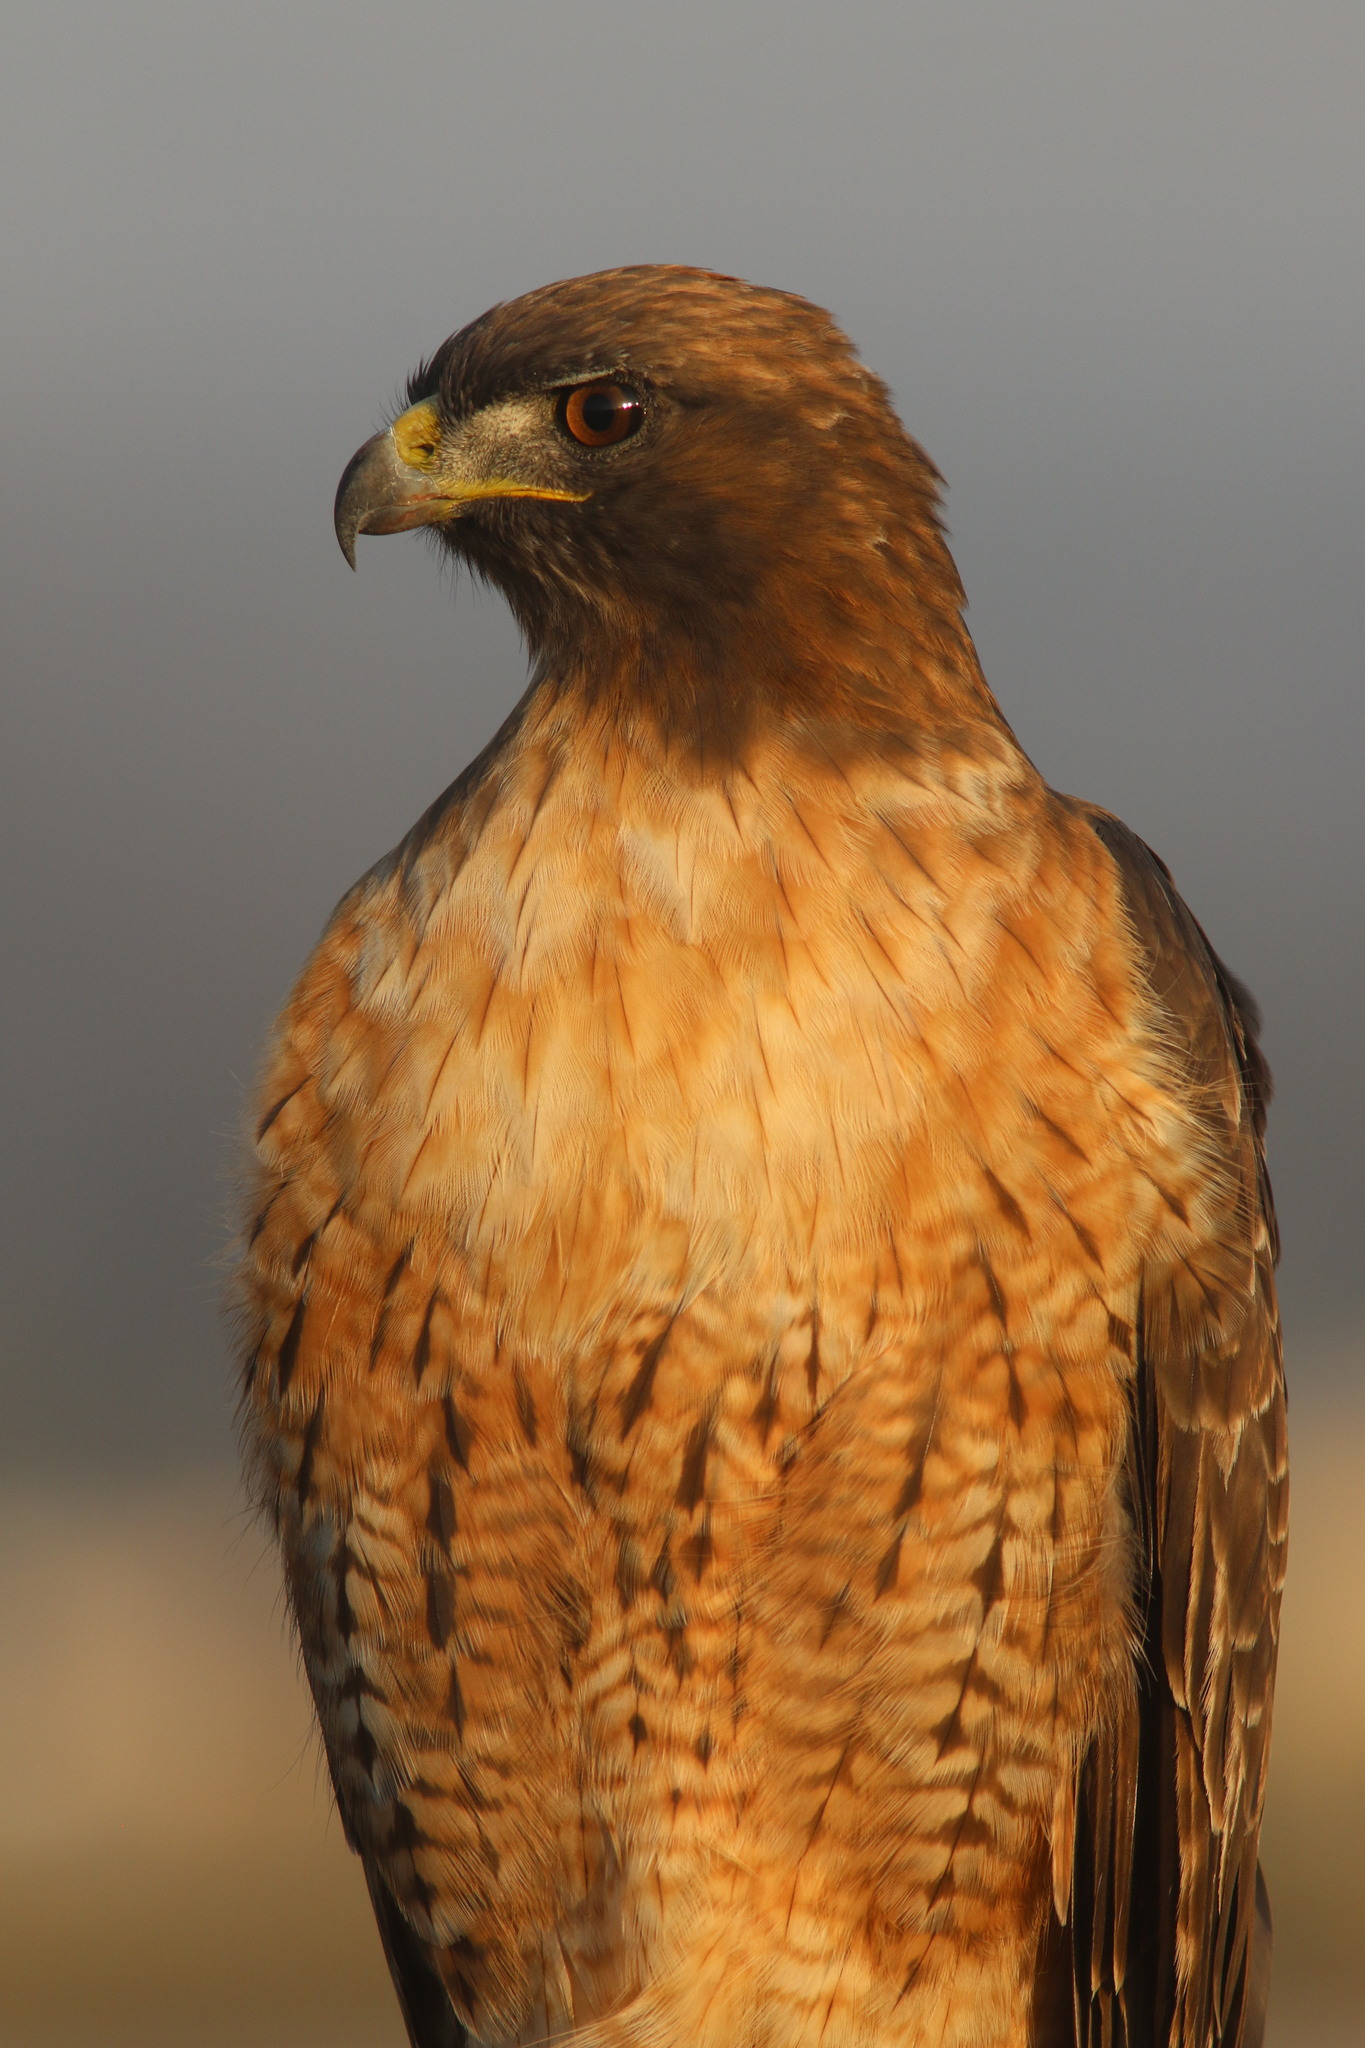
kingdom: Animalia
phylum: Chordata
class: Aves
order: Accipitriformes
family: Accipitridae
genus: Buteo
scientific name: Buteo jamaicensis
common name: Red-tailed hawk
